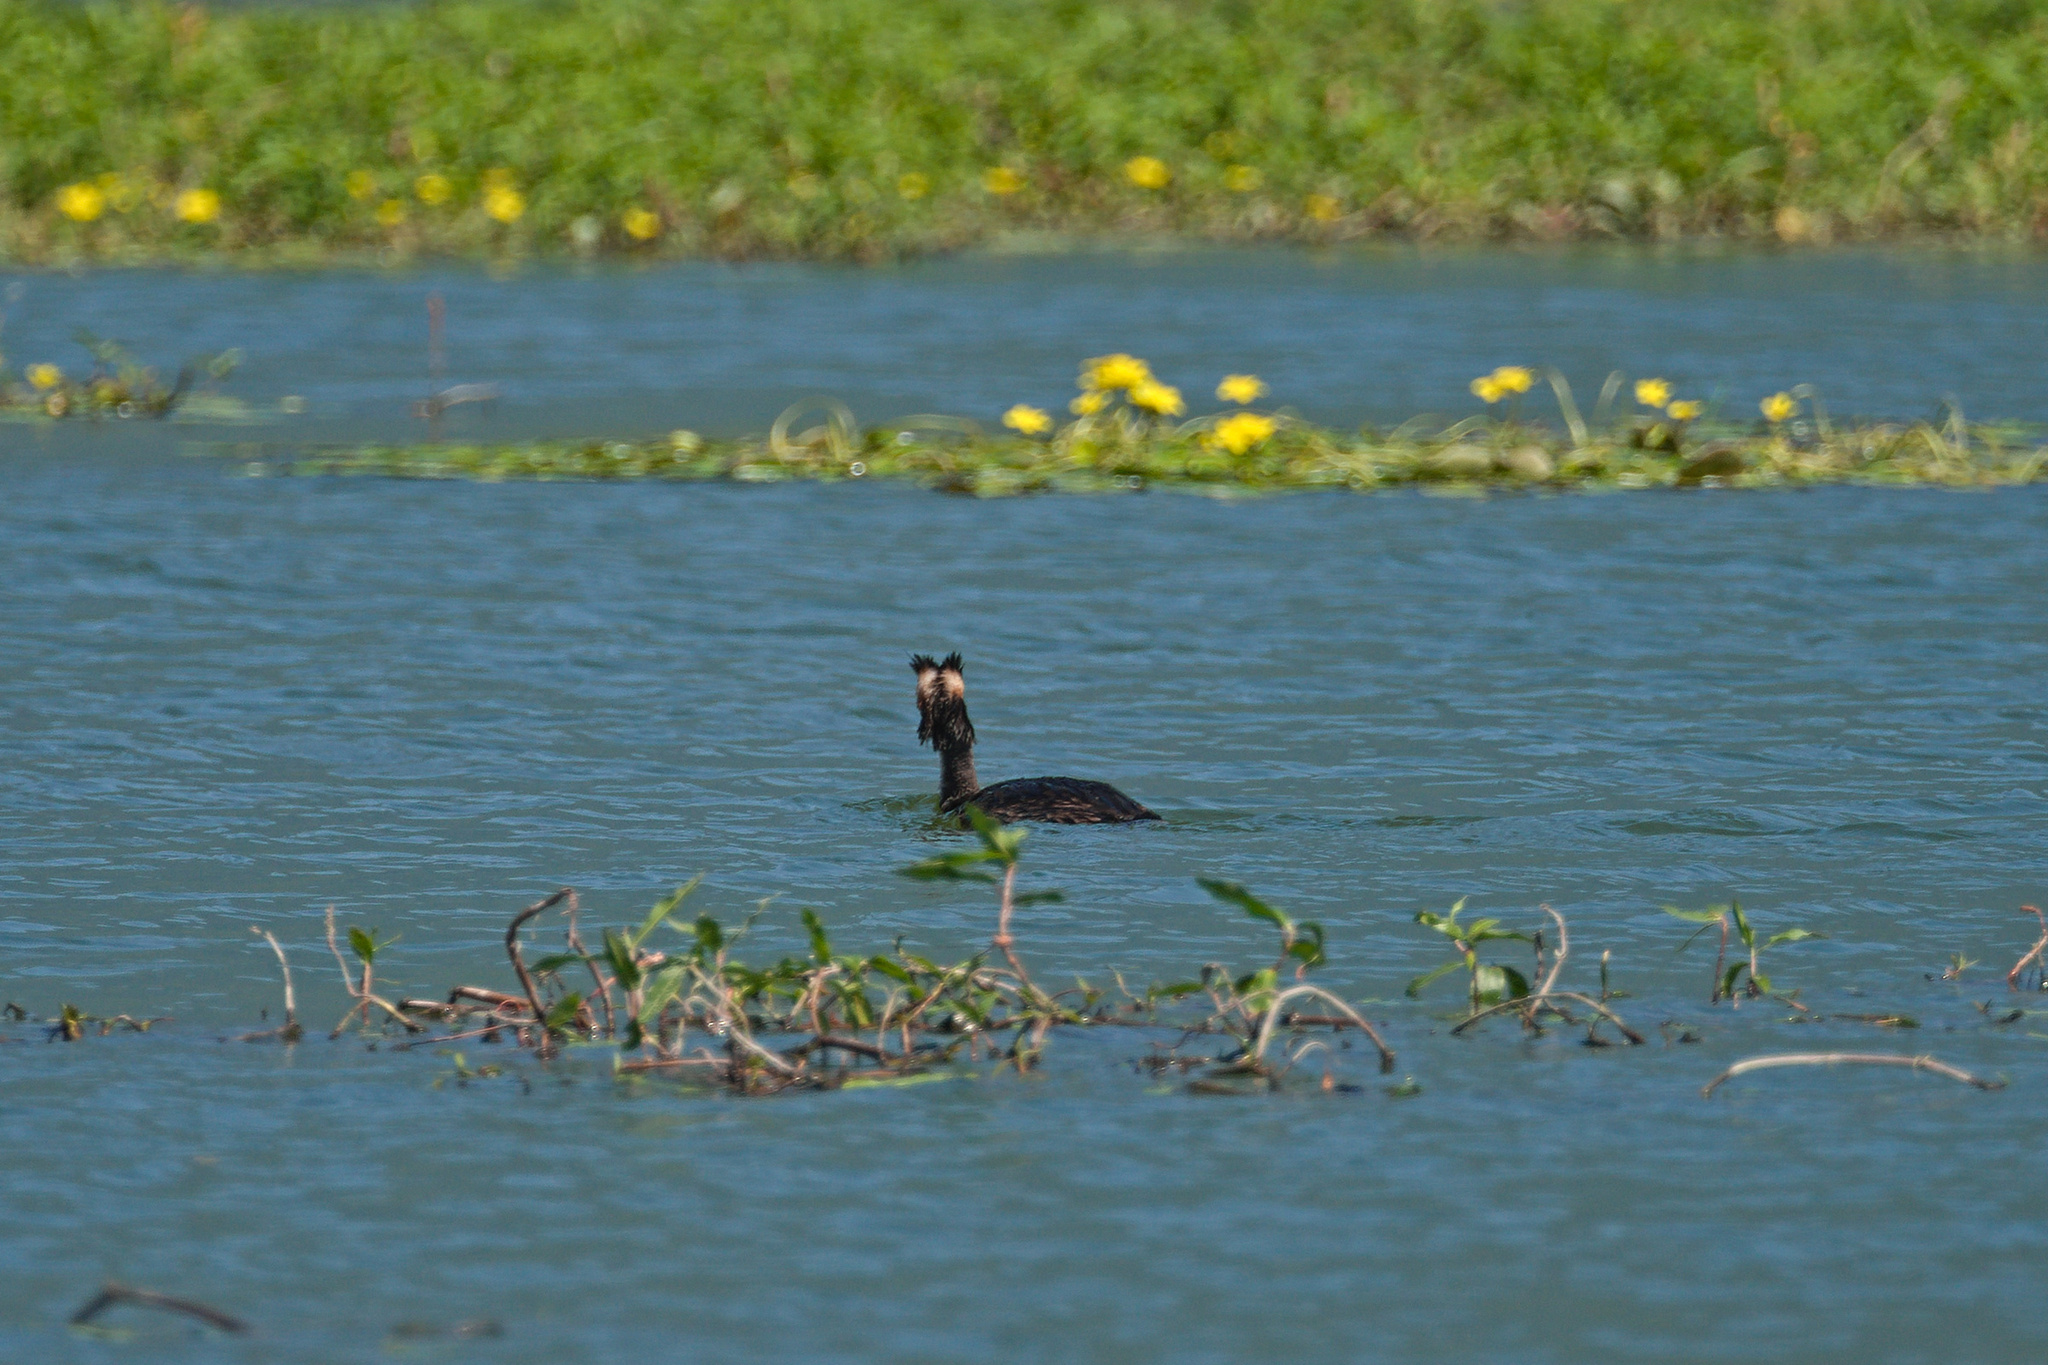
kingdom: Animalia
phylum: Chordata
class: Aves
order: Podicipediformes
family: Podicipedidae
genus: Podiceps
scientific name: Podiceps cristatus
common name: Great crested grebe
